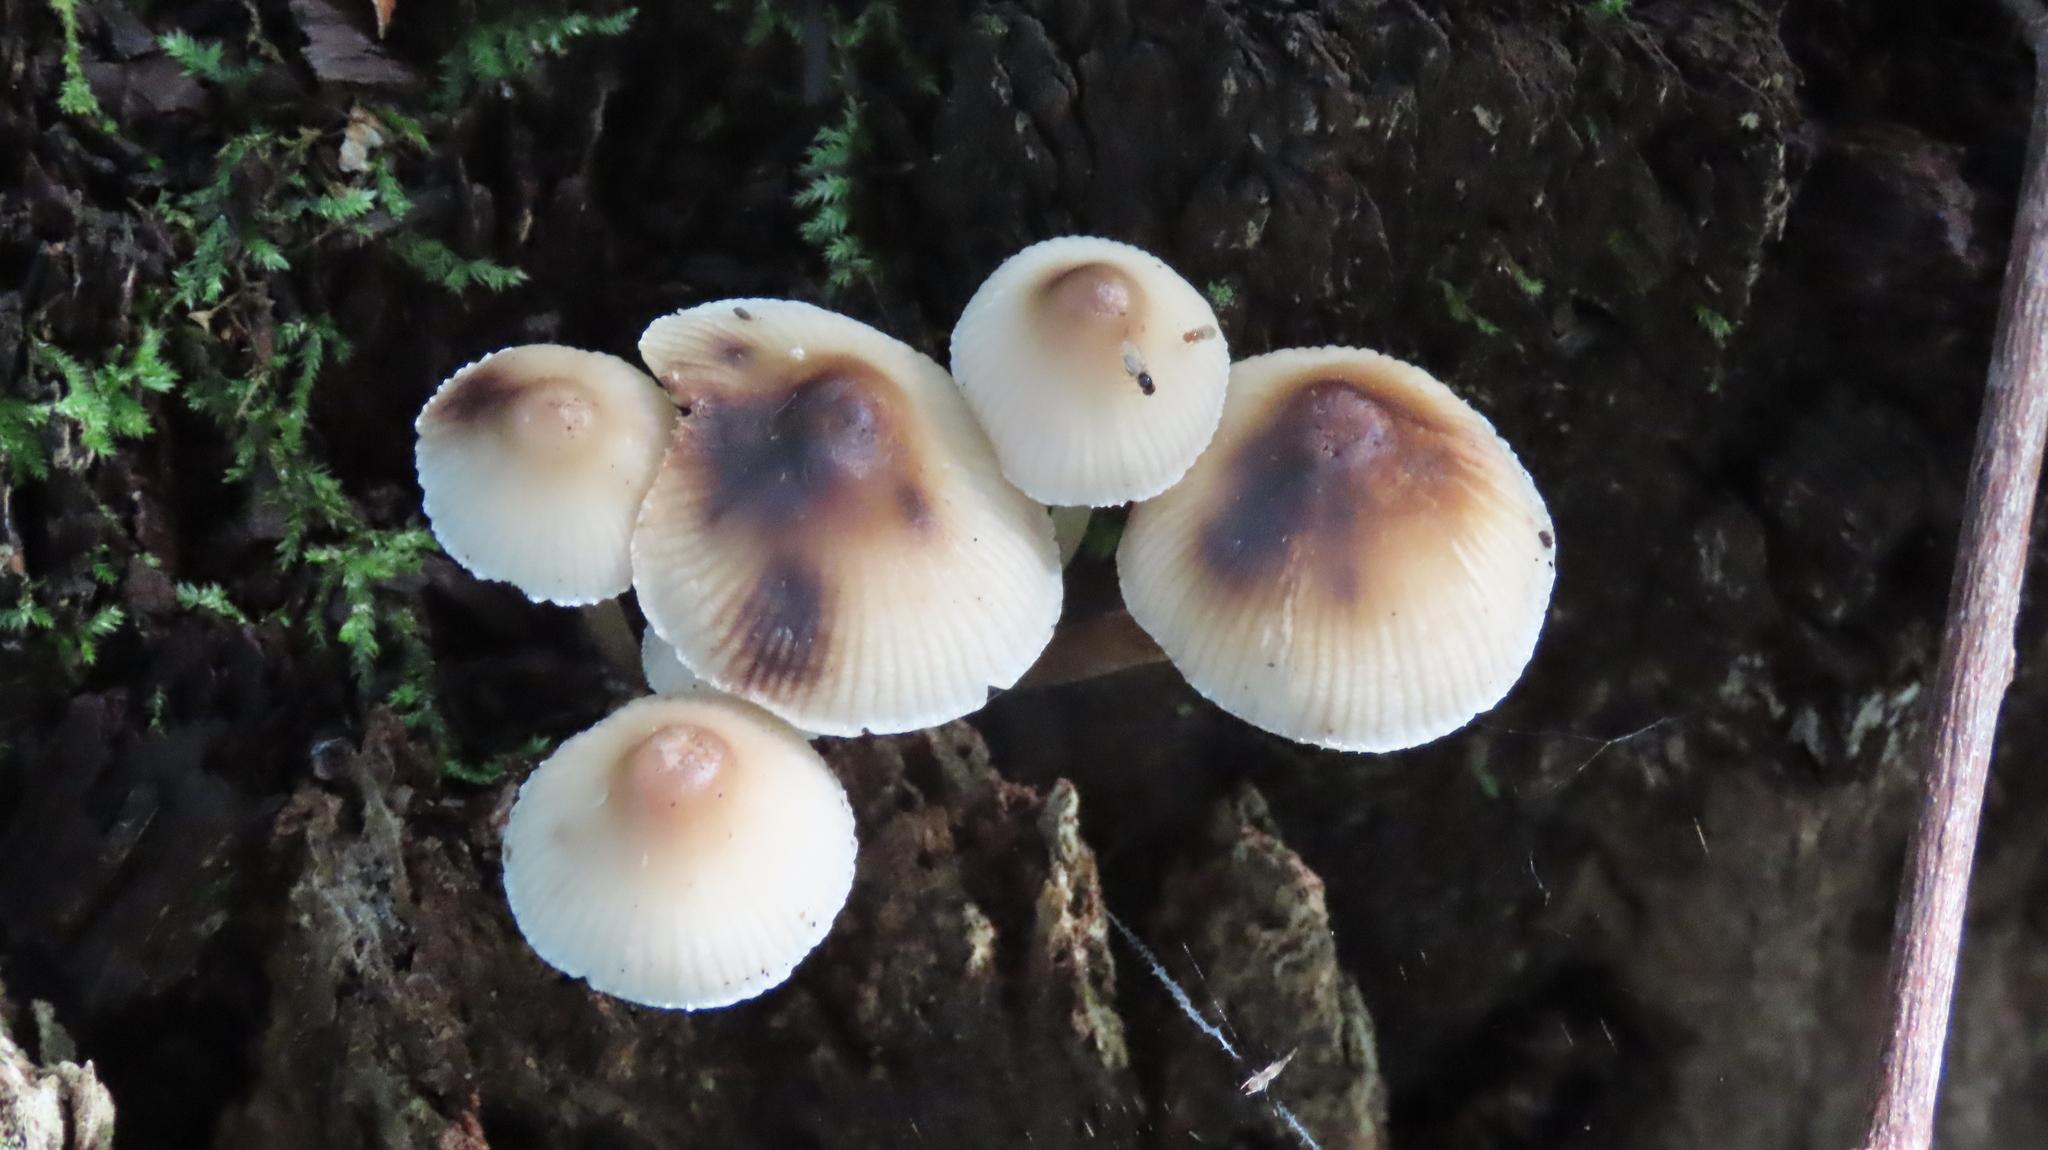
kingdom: Fungi
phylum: Basidiomycota
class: Agaricomycetes
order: Agaricales
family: Mycenaceae
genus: Mycena
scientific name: Mycena inclinata
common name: Clustered bonnet
